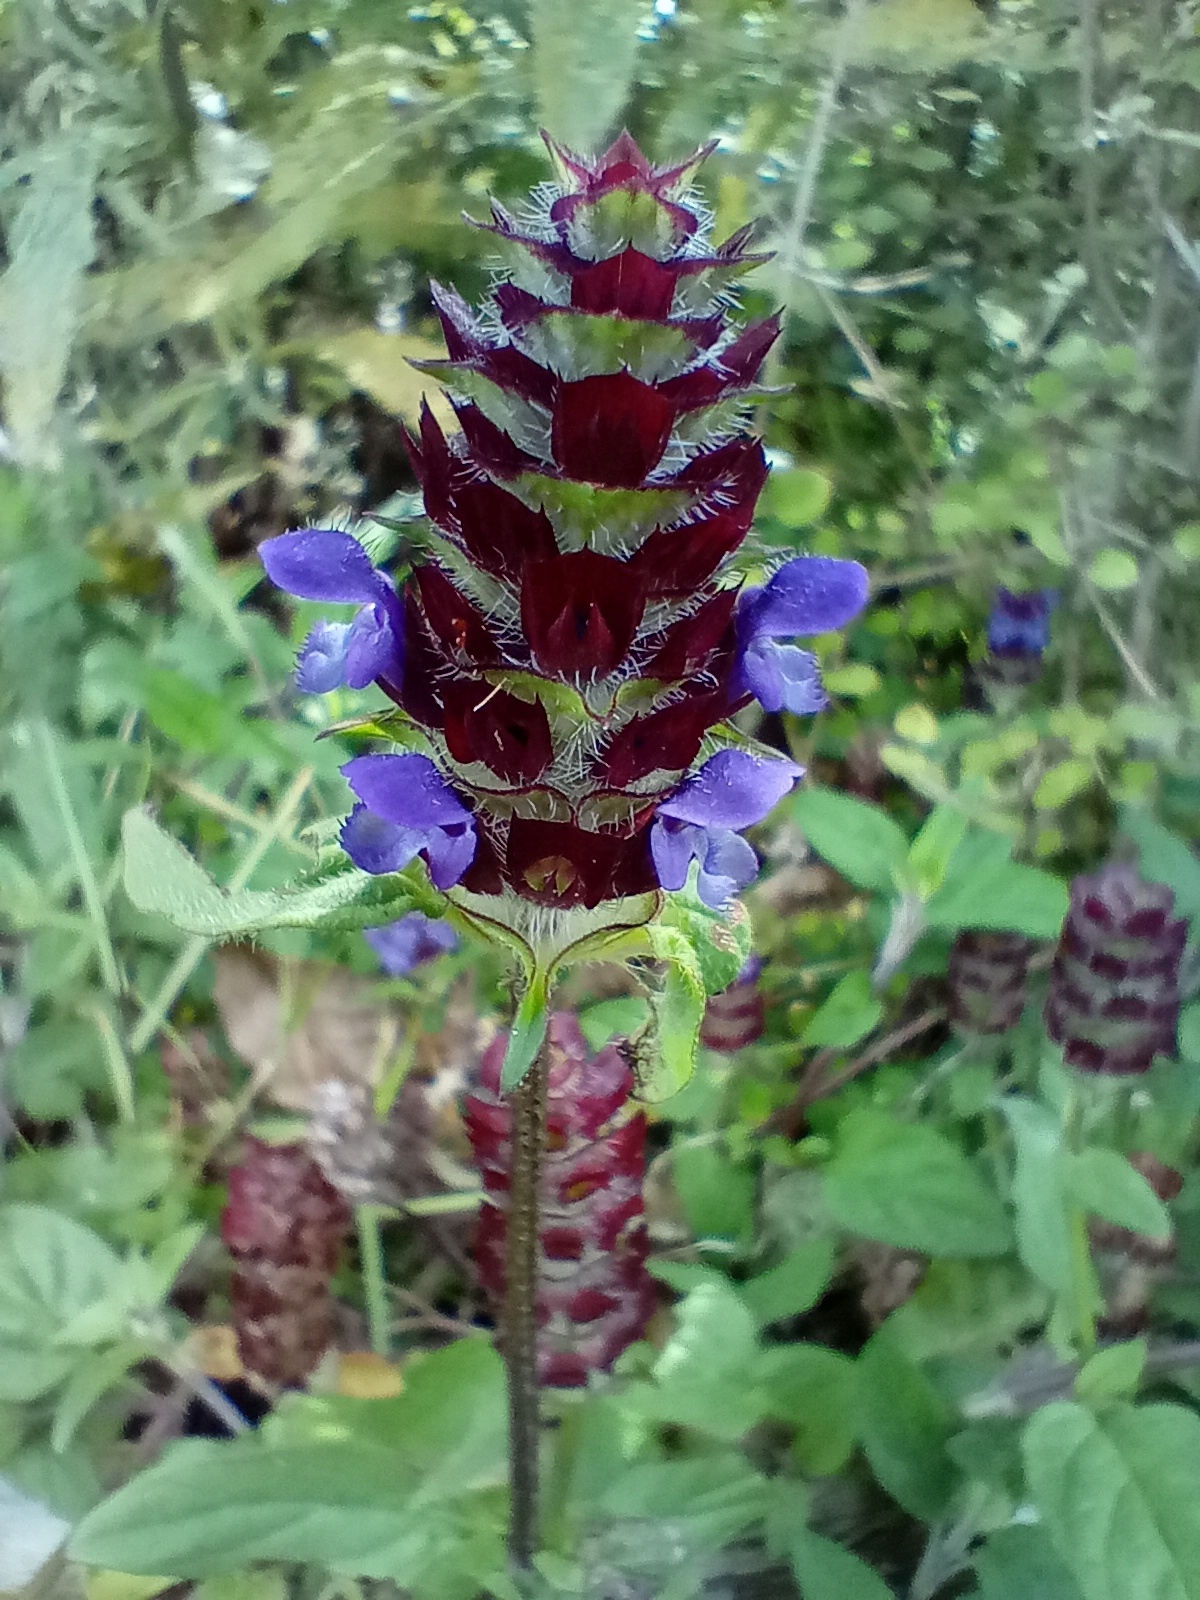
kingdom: Plantae
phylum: Tracheophyta
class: Magnoliopsida
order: Lamiales
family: Lamiaceae
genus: Prunella
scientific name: Prunella vulgaris
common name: Heal-all
